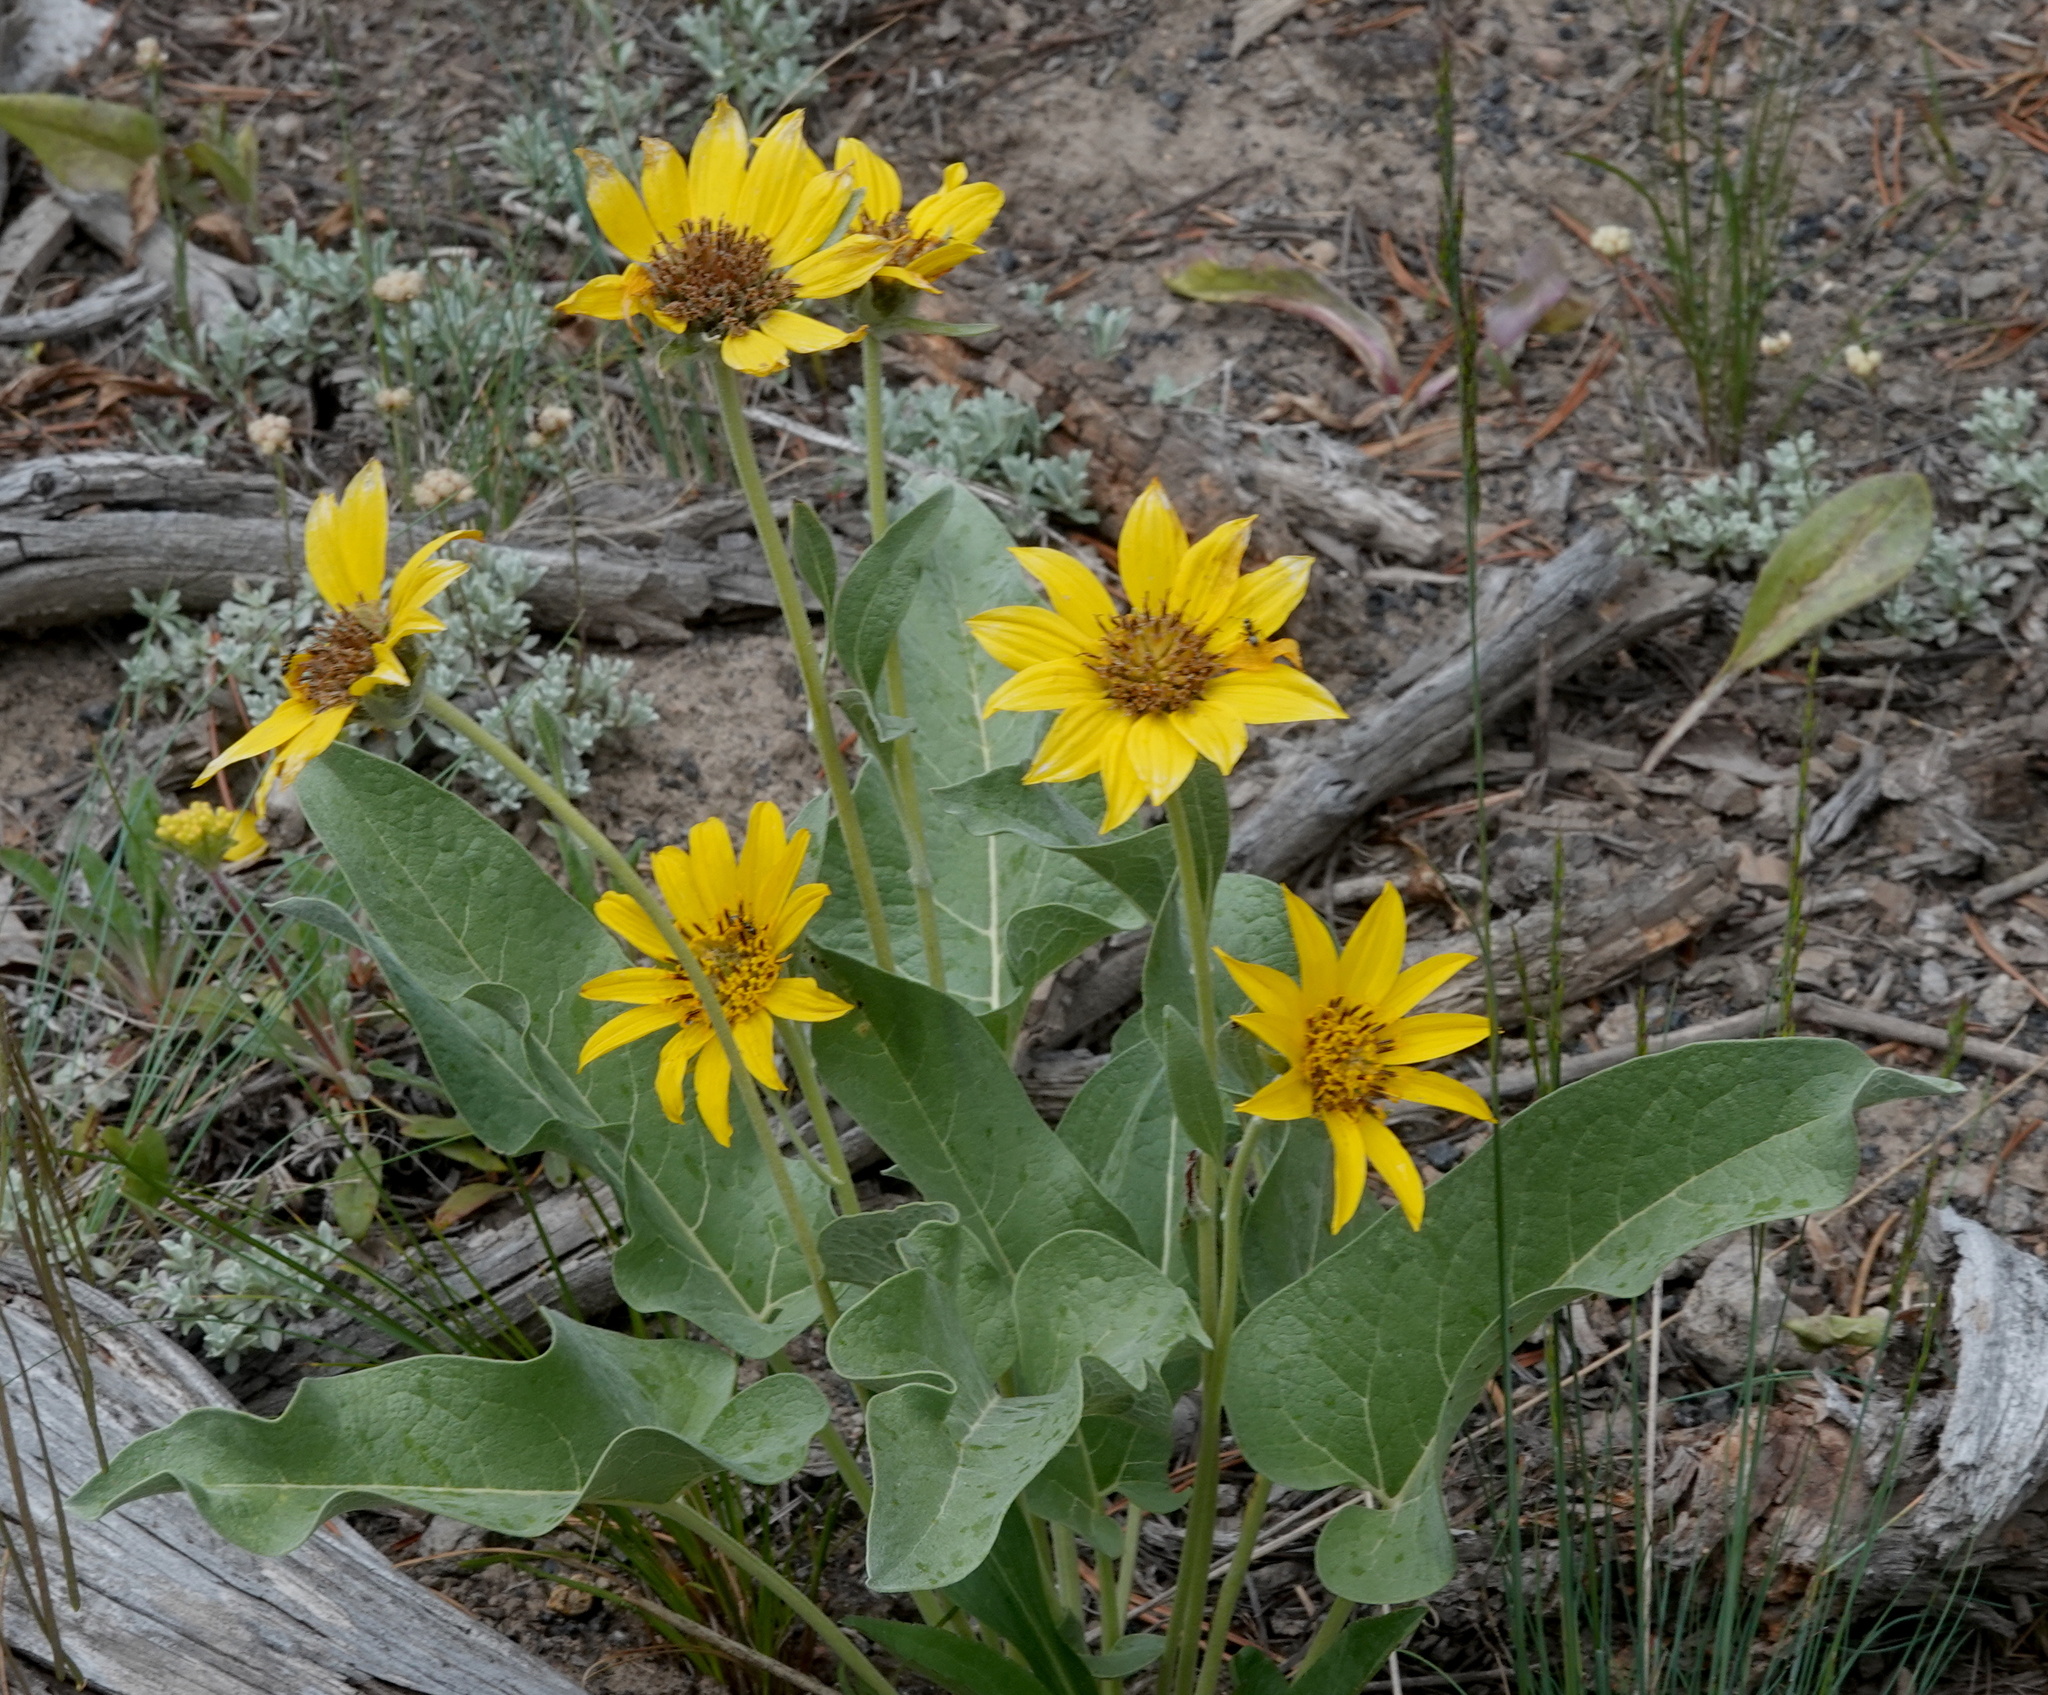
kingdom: Plantae
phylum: Tracheophyta
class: Magnoliopsida
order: Asterales
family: Asteraceae
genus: Wyethia
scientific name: Wyethia sagittata
